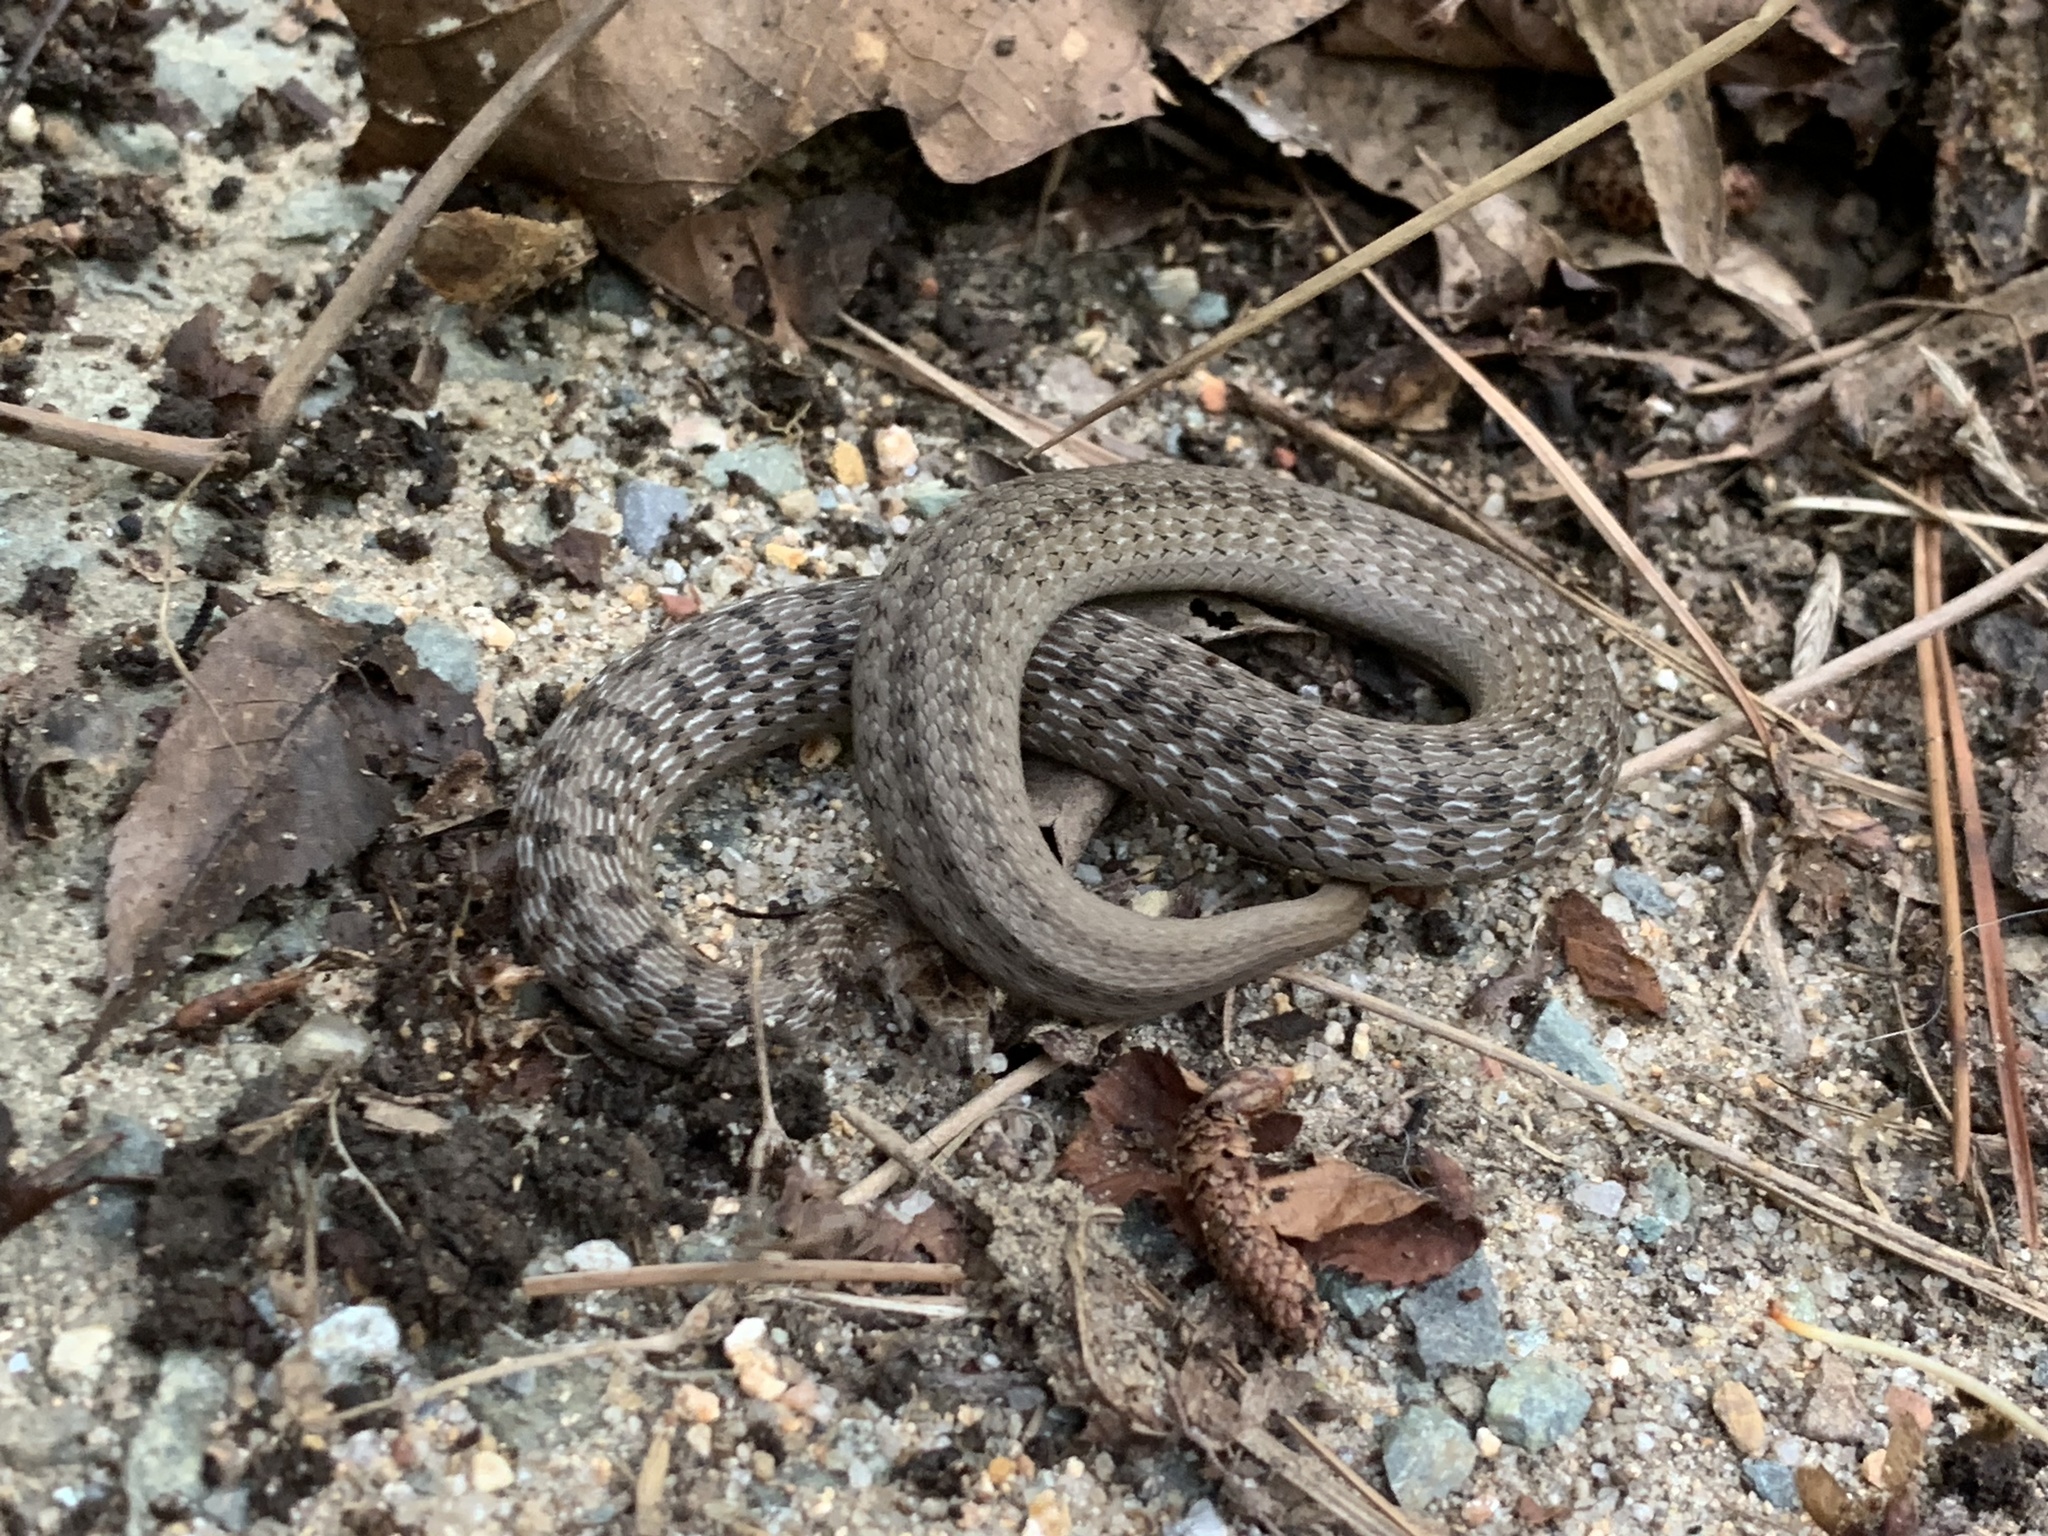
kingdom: Animalia
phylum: Chordata
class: Squamata
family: Colubridae
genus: Storeria
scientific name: Storeria dekayi
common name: (dekay’s) brown snake
